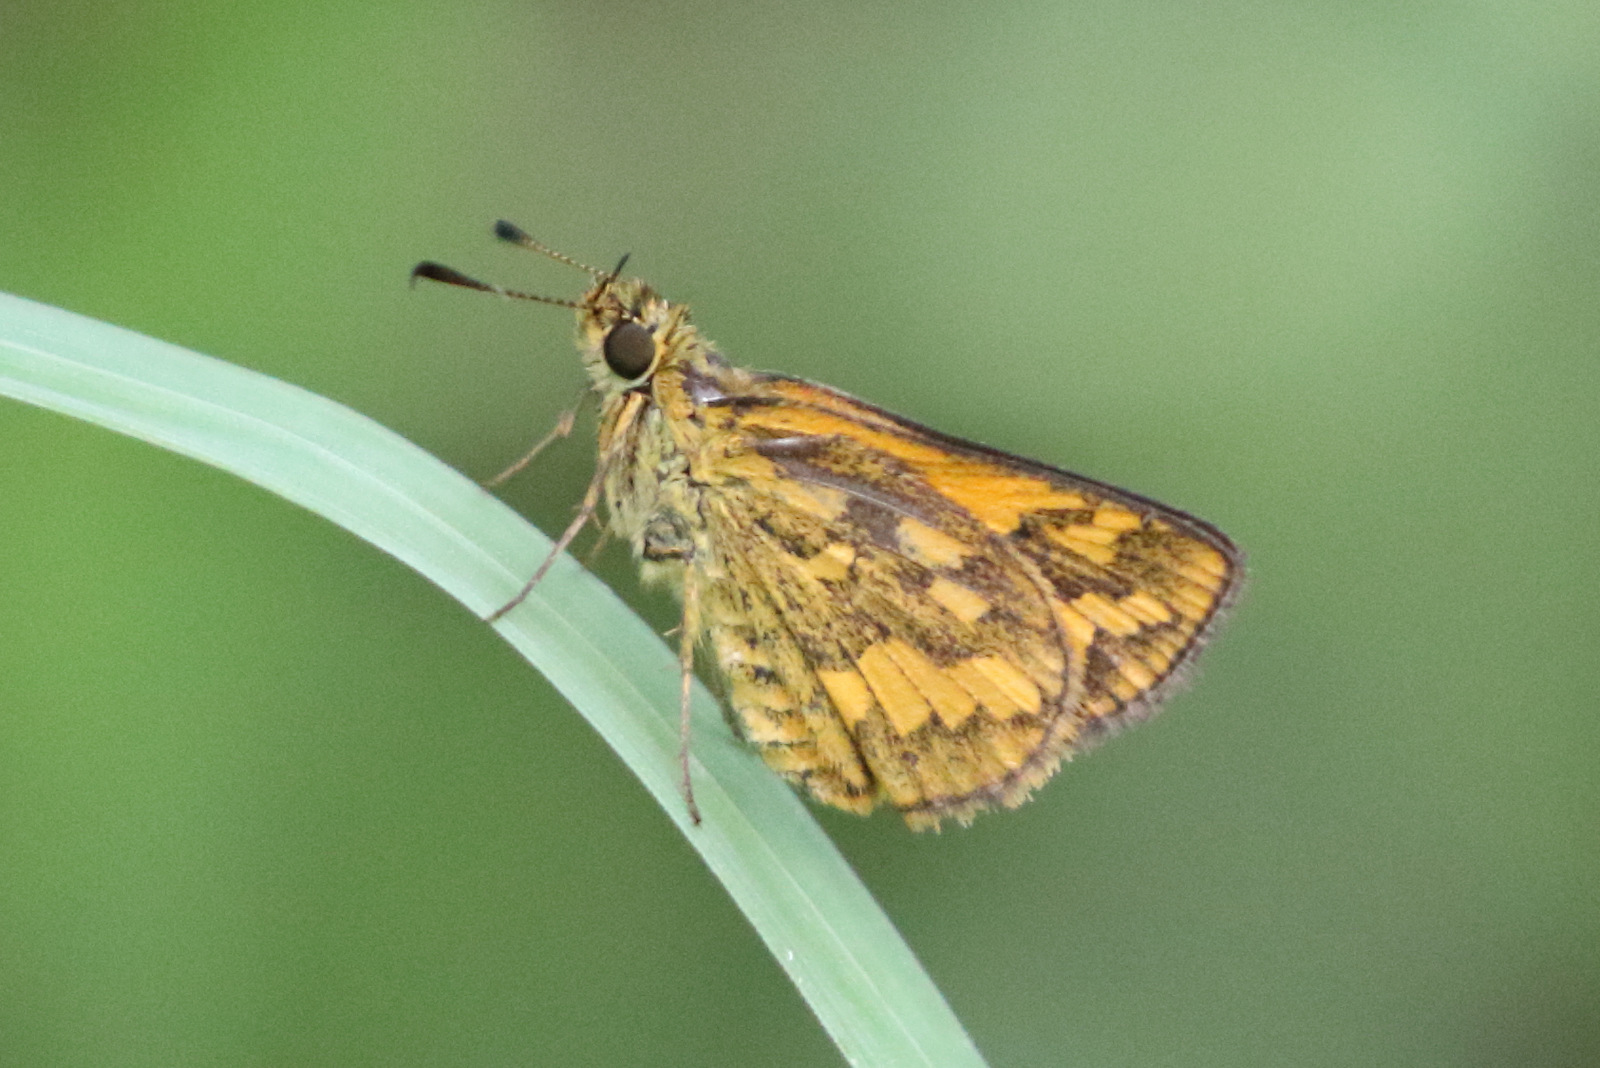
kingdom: Animalia
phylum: Arthropoda
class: Insecta
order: Lepidoptera
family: Hesperiidae
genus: Suniana
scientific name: Suniana sunias
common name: Wide-brand grass-dart
